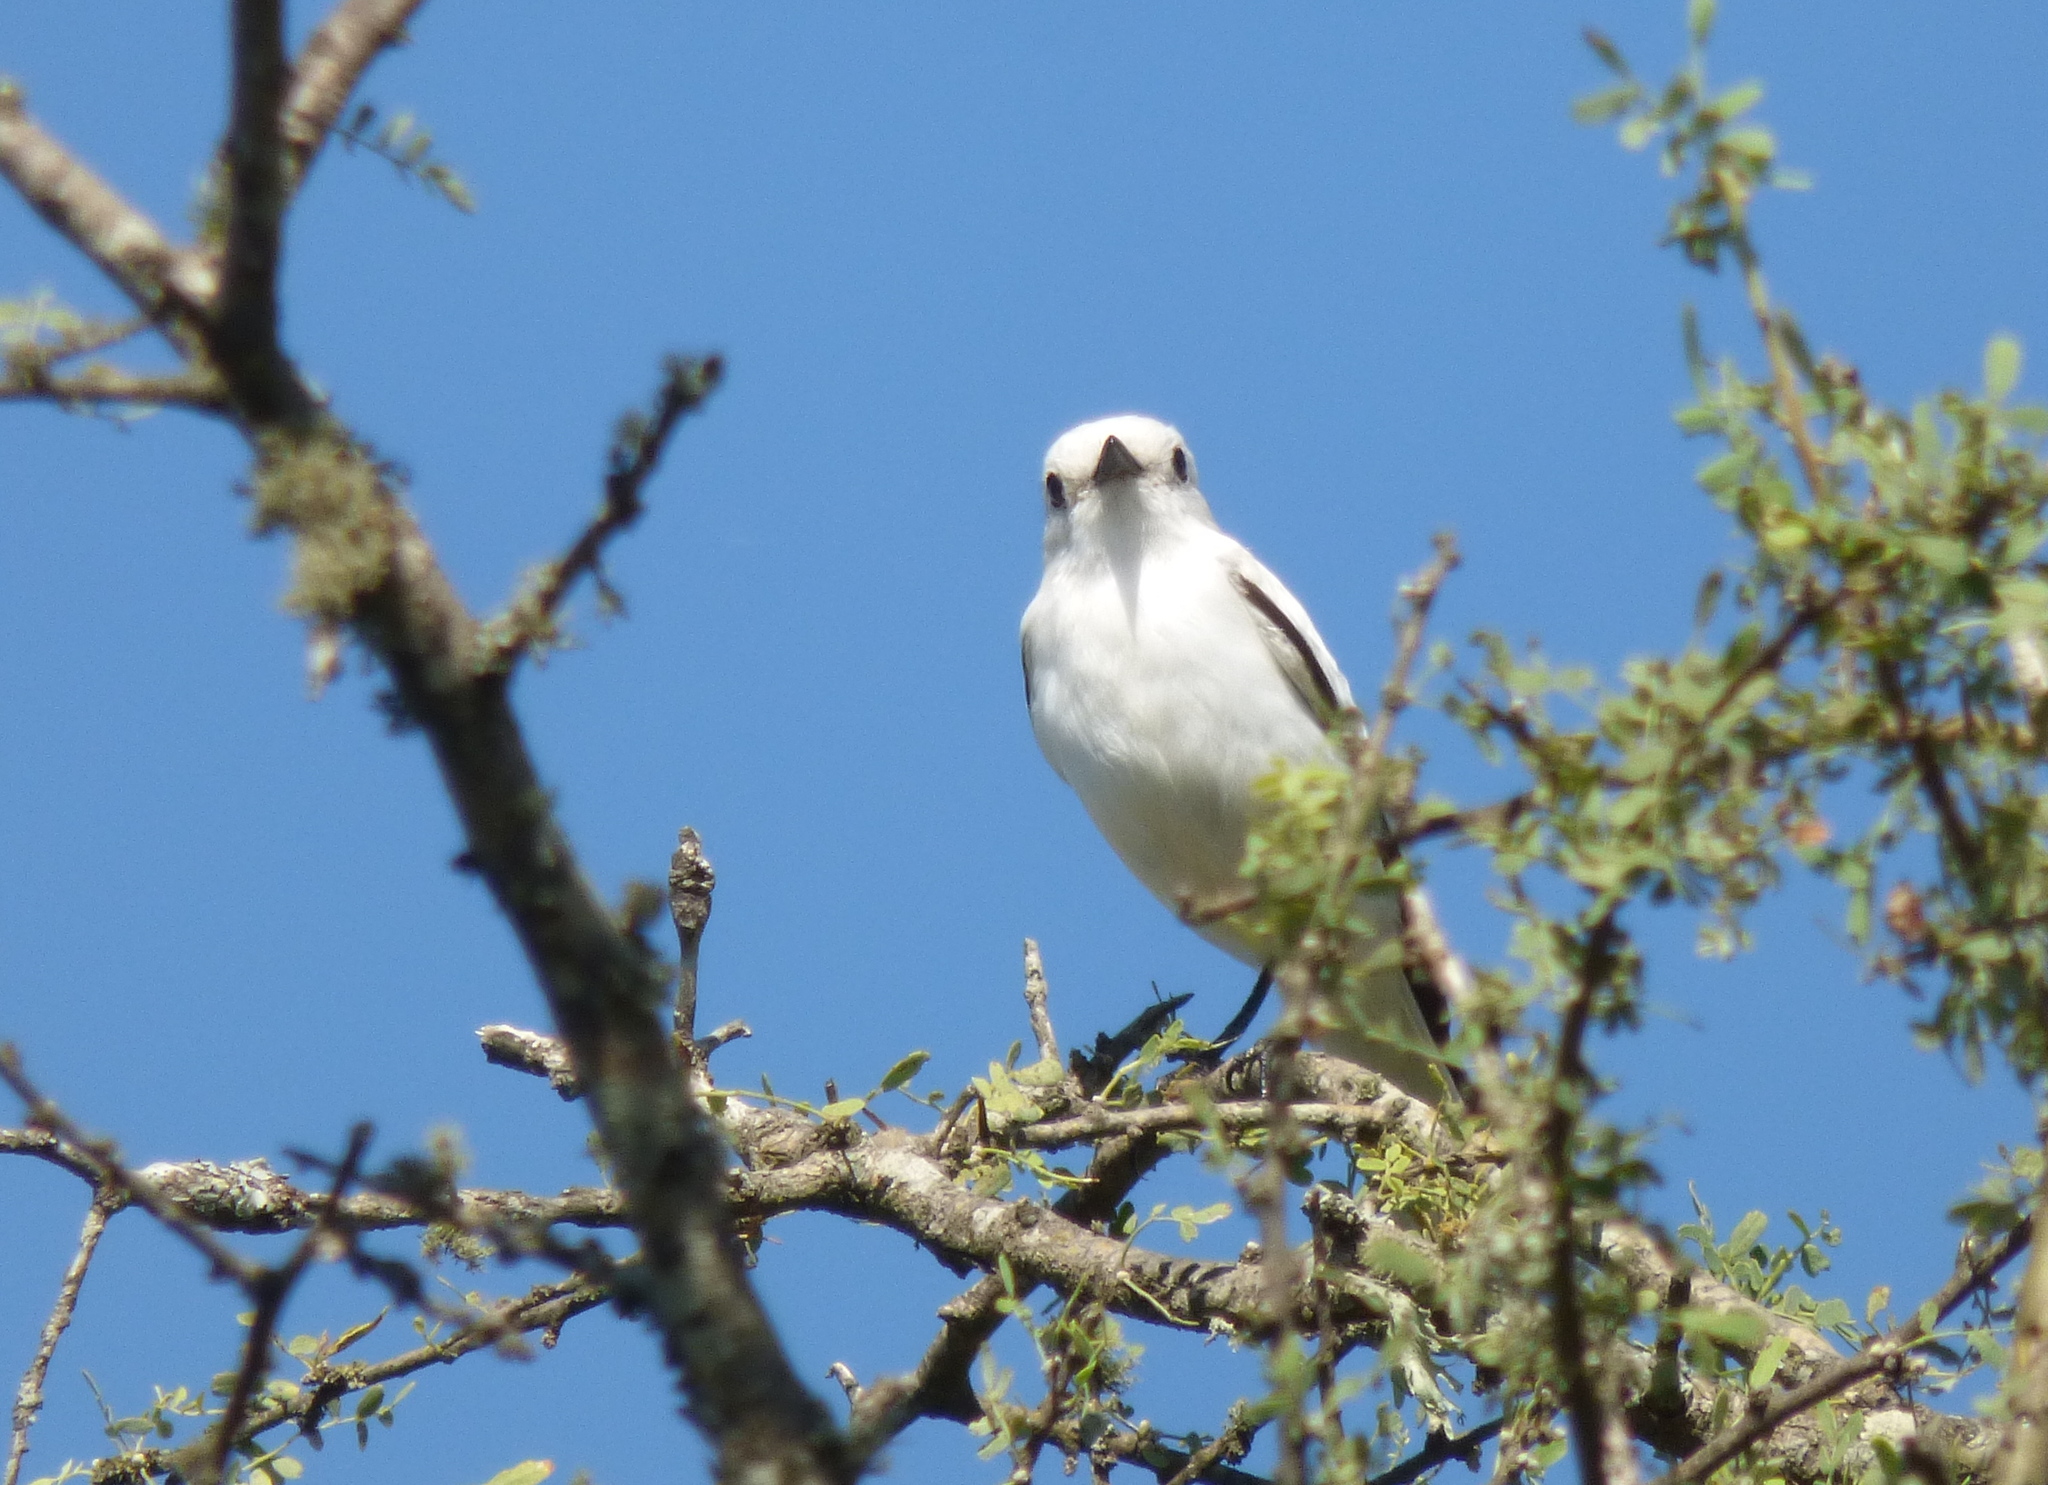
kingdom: Animalia
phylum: Chordata
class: Aves
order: Passeriformes
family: Tyrannidae
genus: Xolmis
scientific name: Xolmis irupero
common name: White monjita
